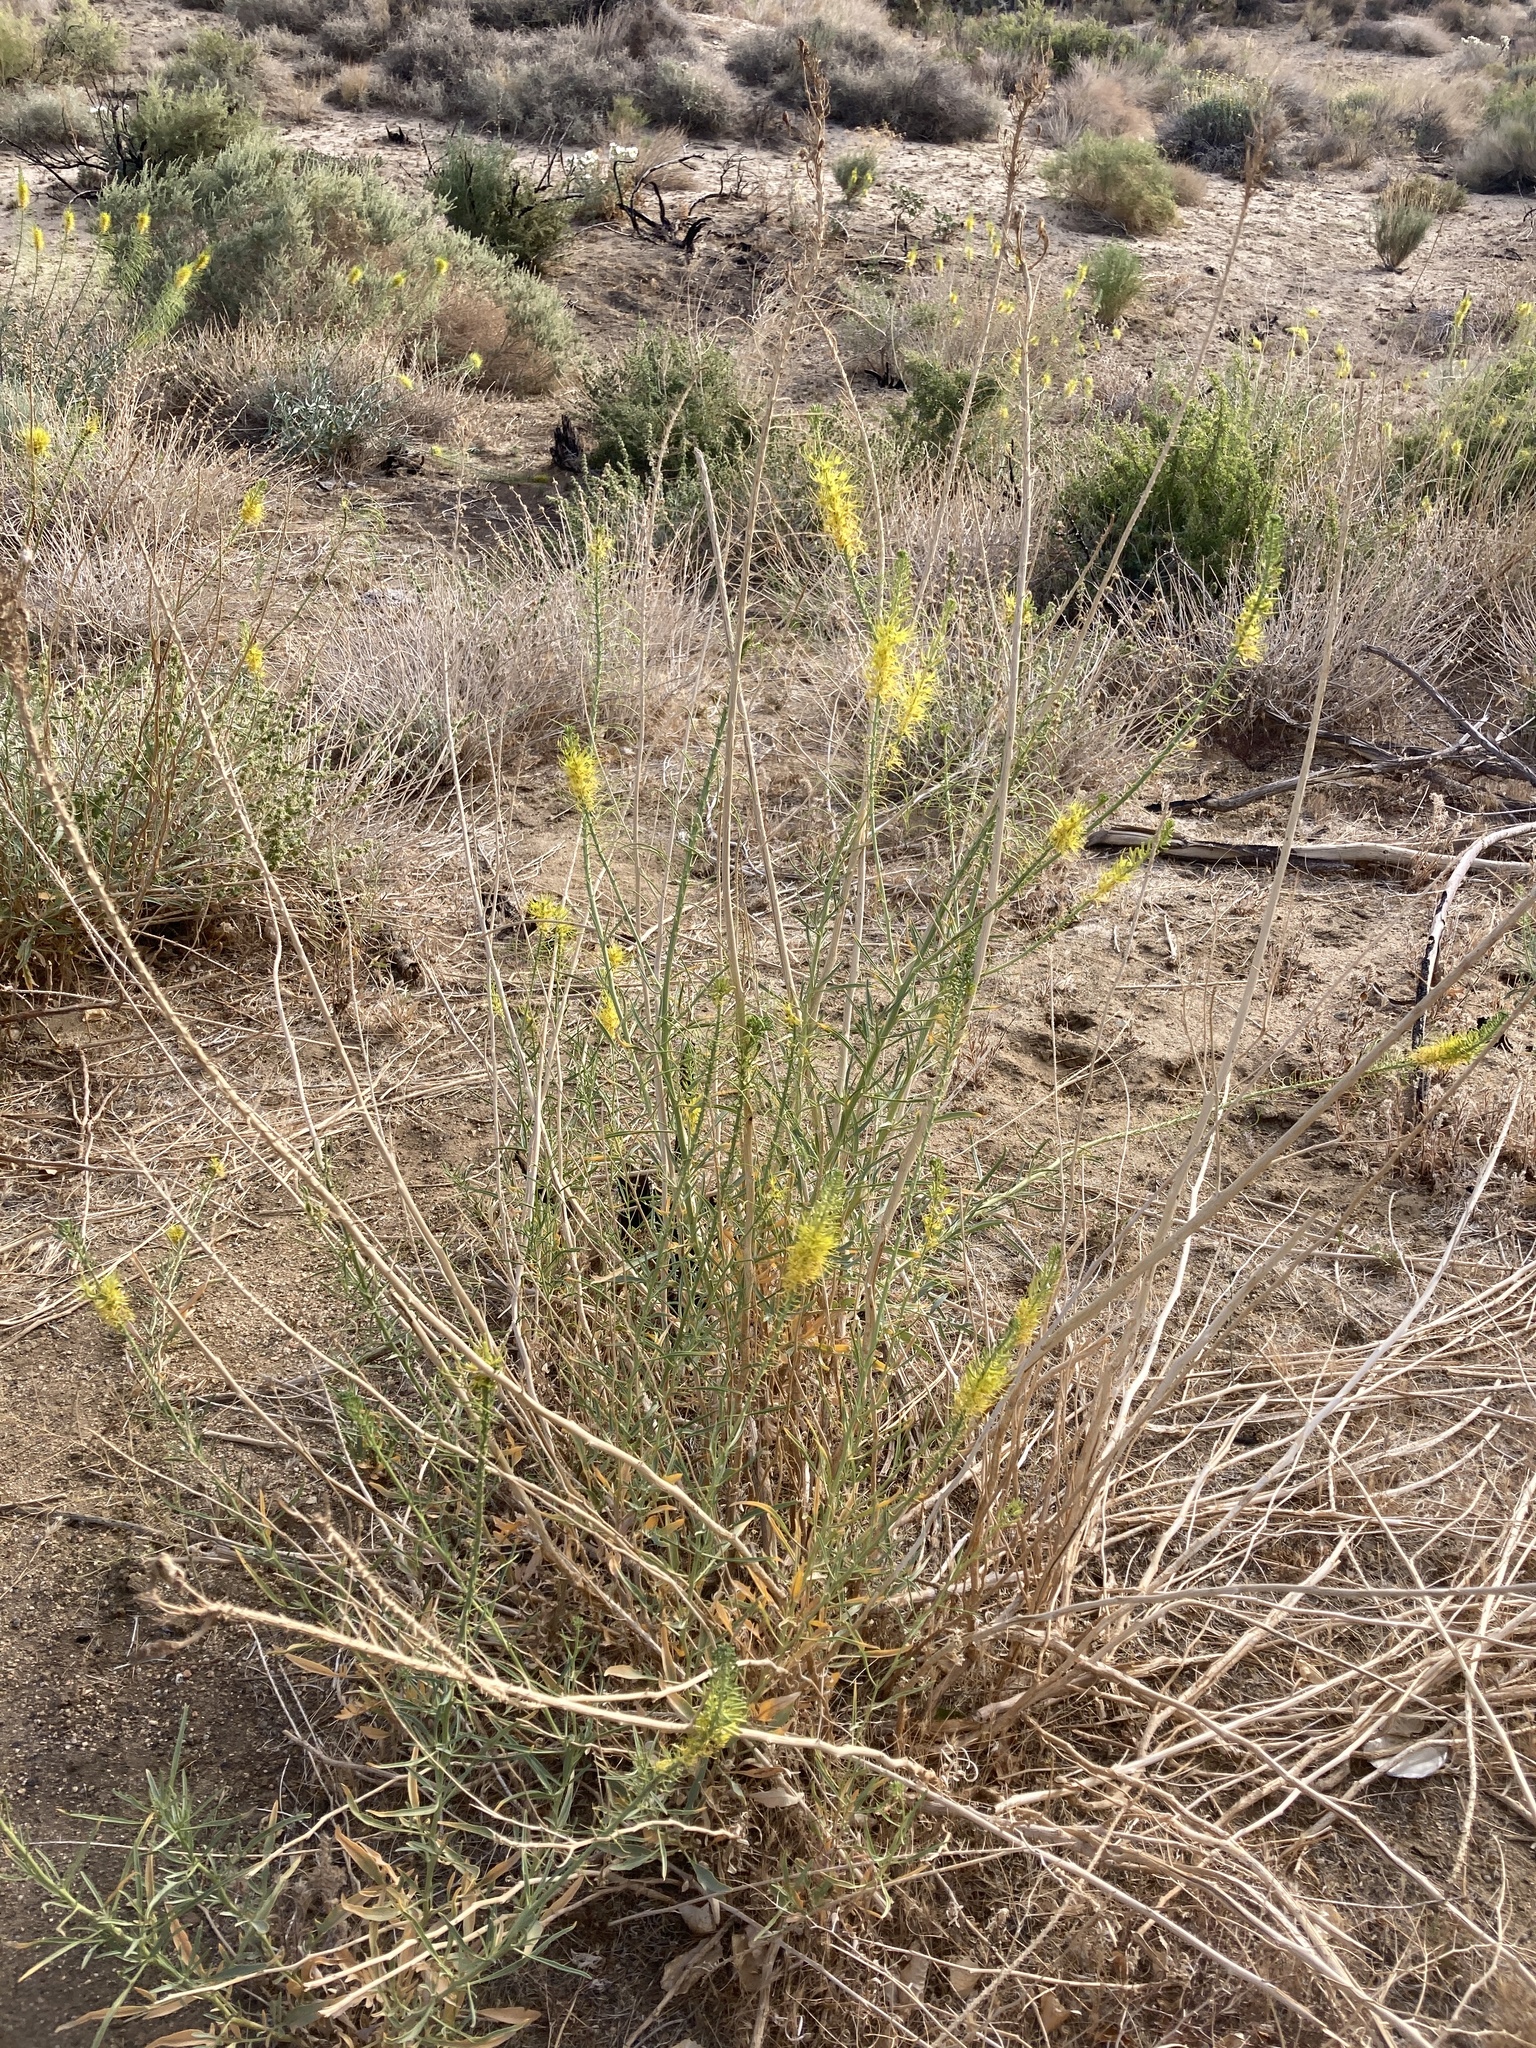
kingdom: Plantae
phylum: Tracheophyta
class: Magnoliopsida
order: Brassicales
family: Brassicaceae
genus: Stanleya
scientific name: Stanleya pinnata
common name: Prince's-plume
